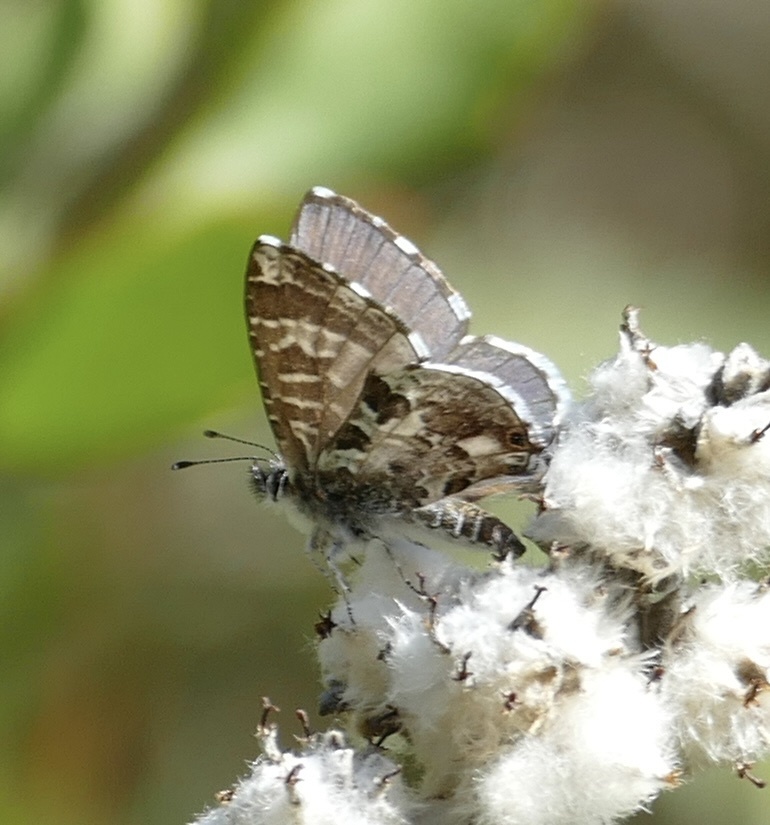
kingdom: Animalia
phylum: Arthropoda
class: Insecta
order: Lepidoptera
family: Lycaenidae
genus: Cacyreus
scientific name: Cacyreus lingeus
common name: Bush bronze
